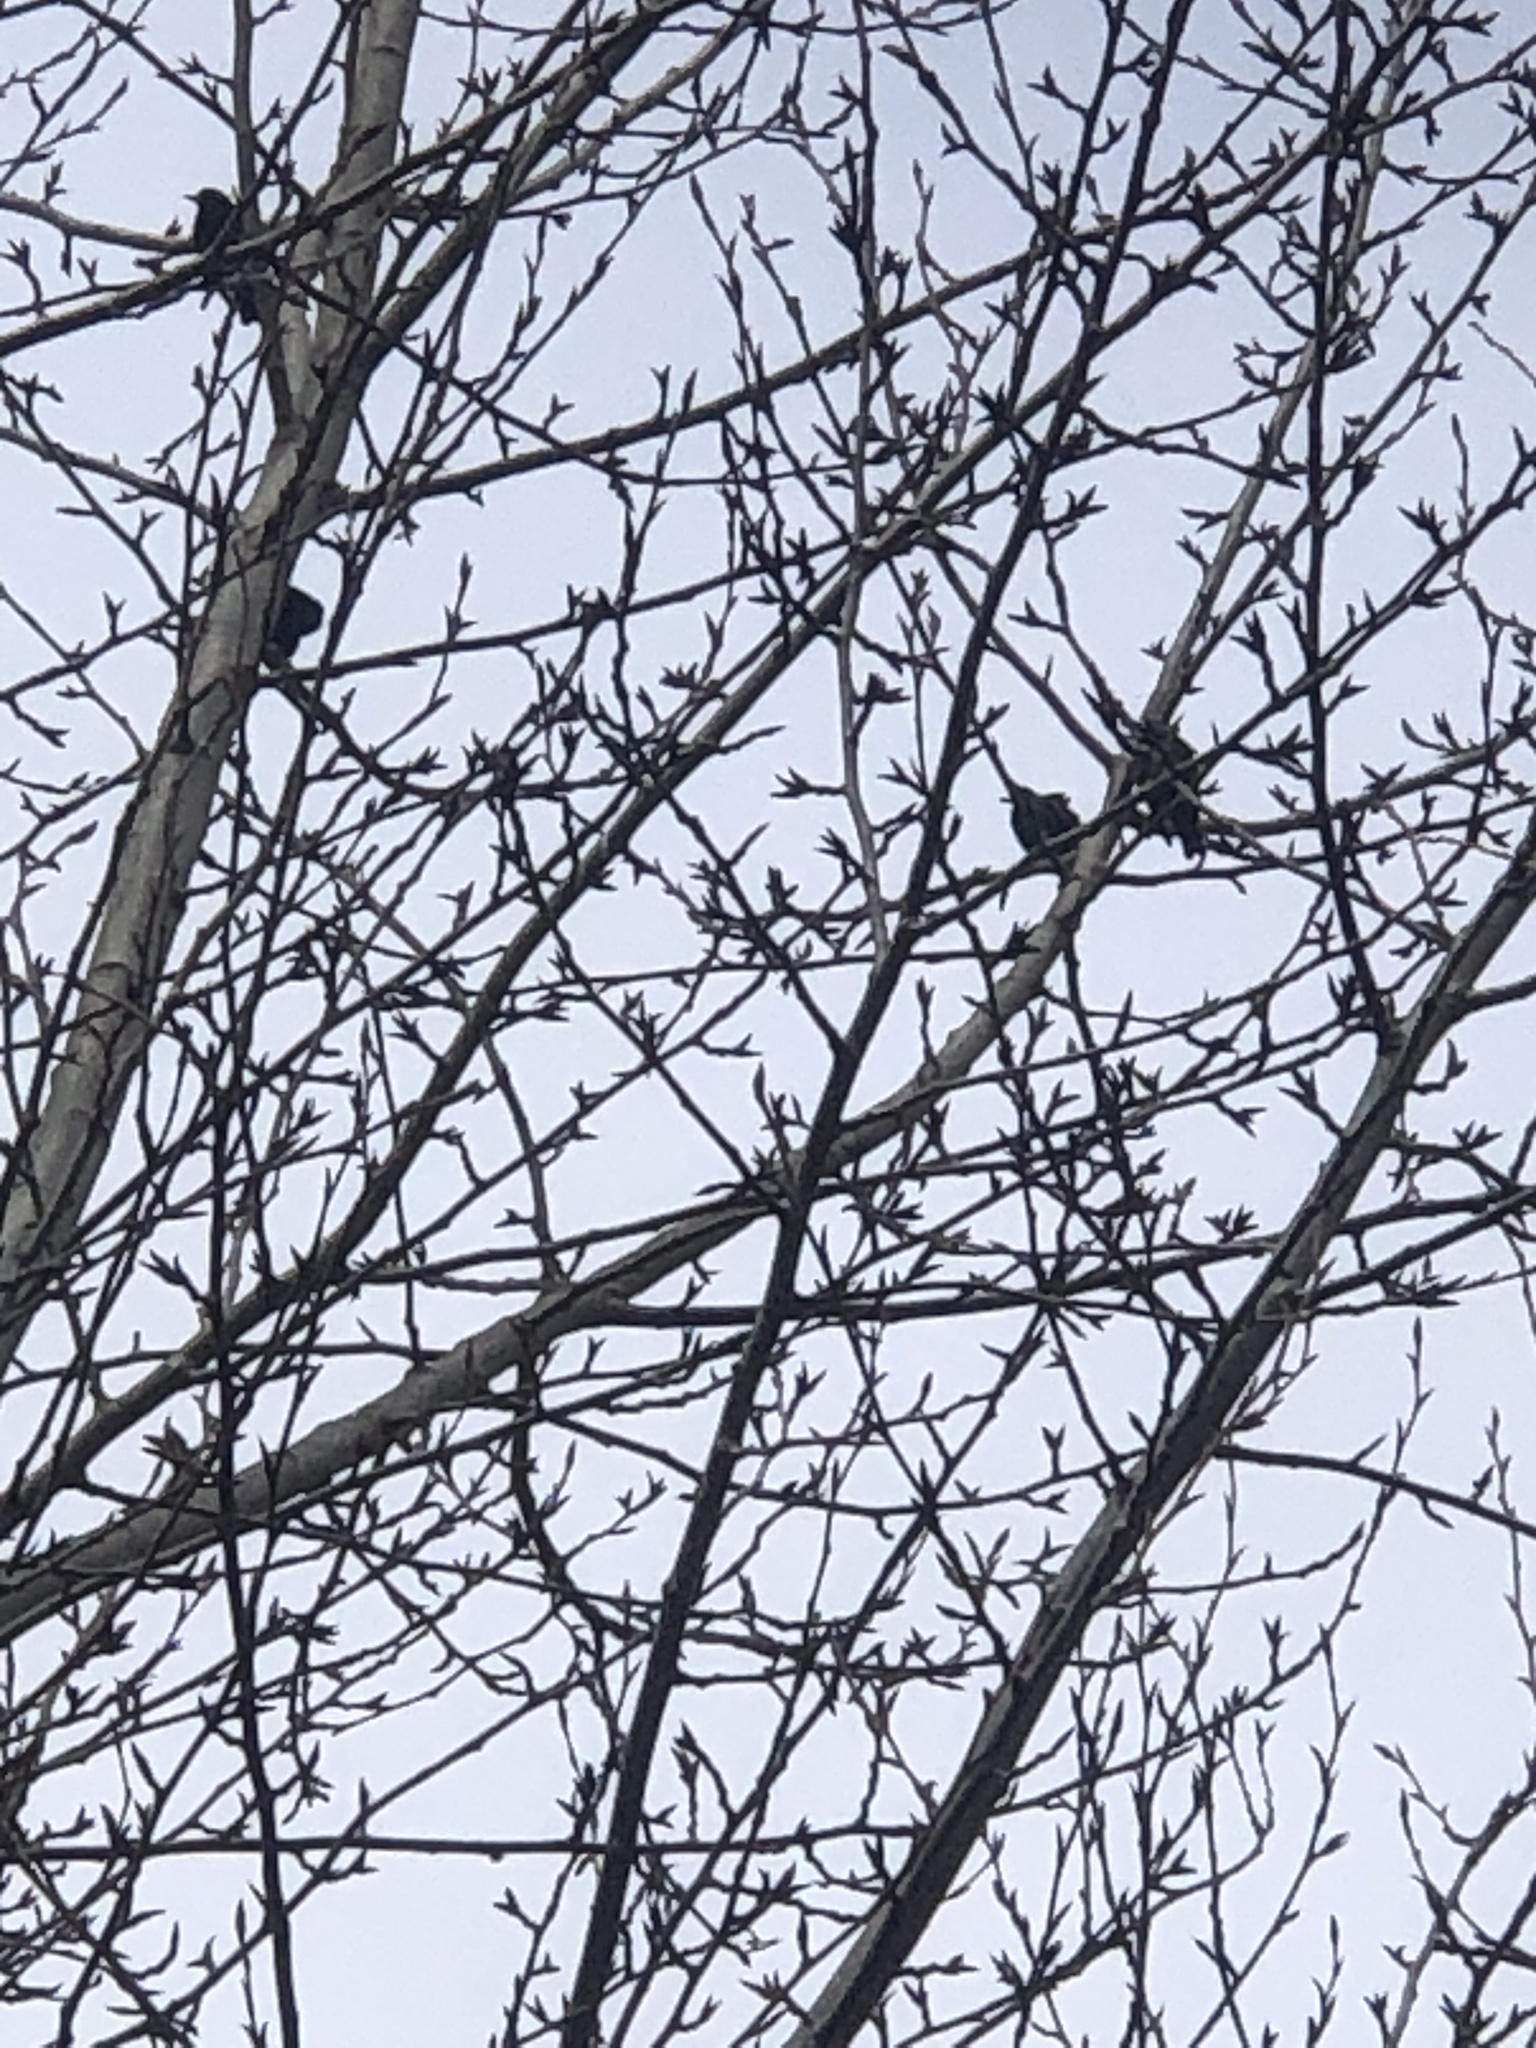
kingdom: Animalia
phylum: Chordata
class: Aves
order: Passeriformes
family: Sturnidae
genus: Sturnus
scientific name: Sturnus vulgaris
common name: Common starling
